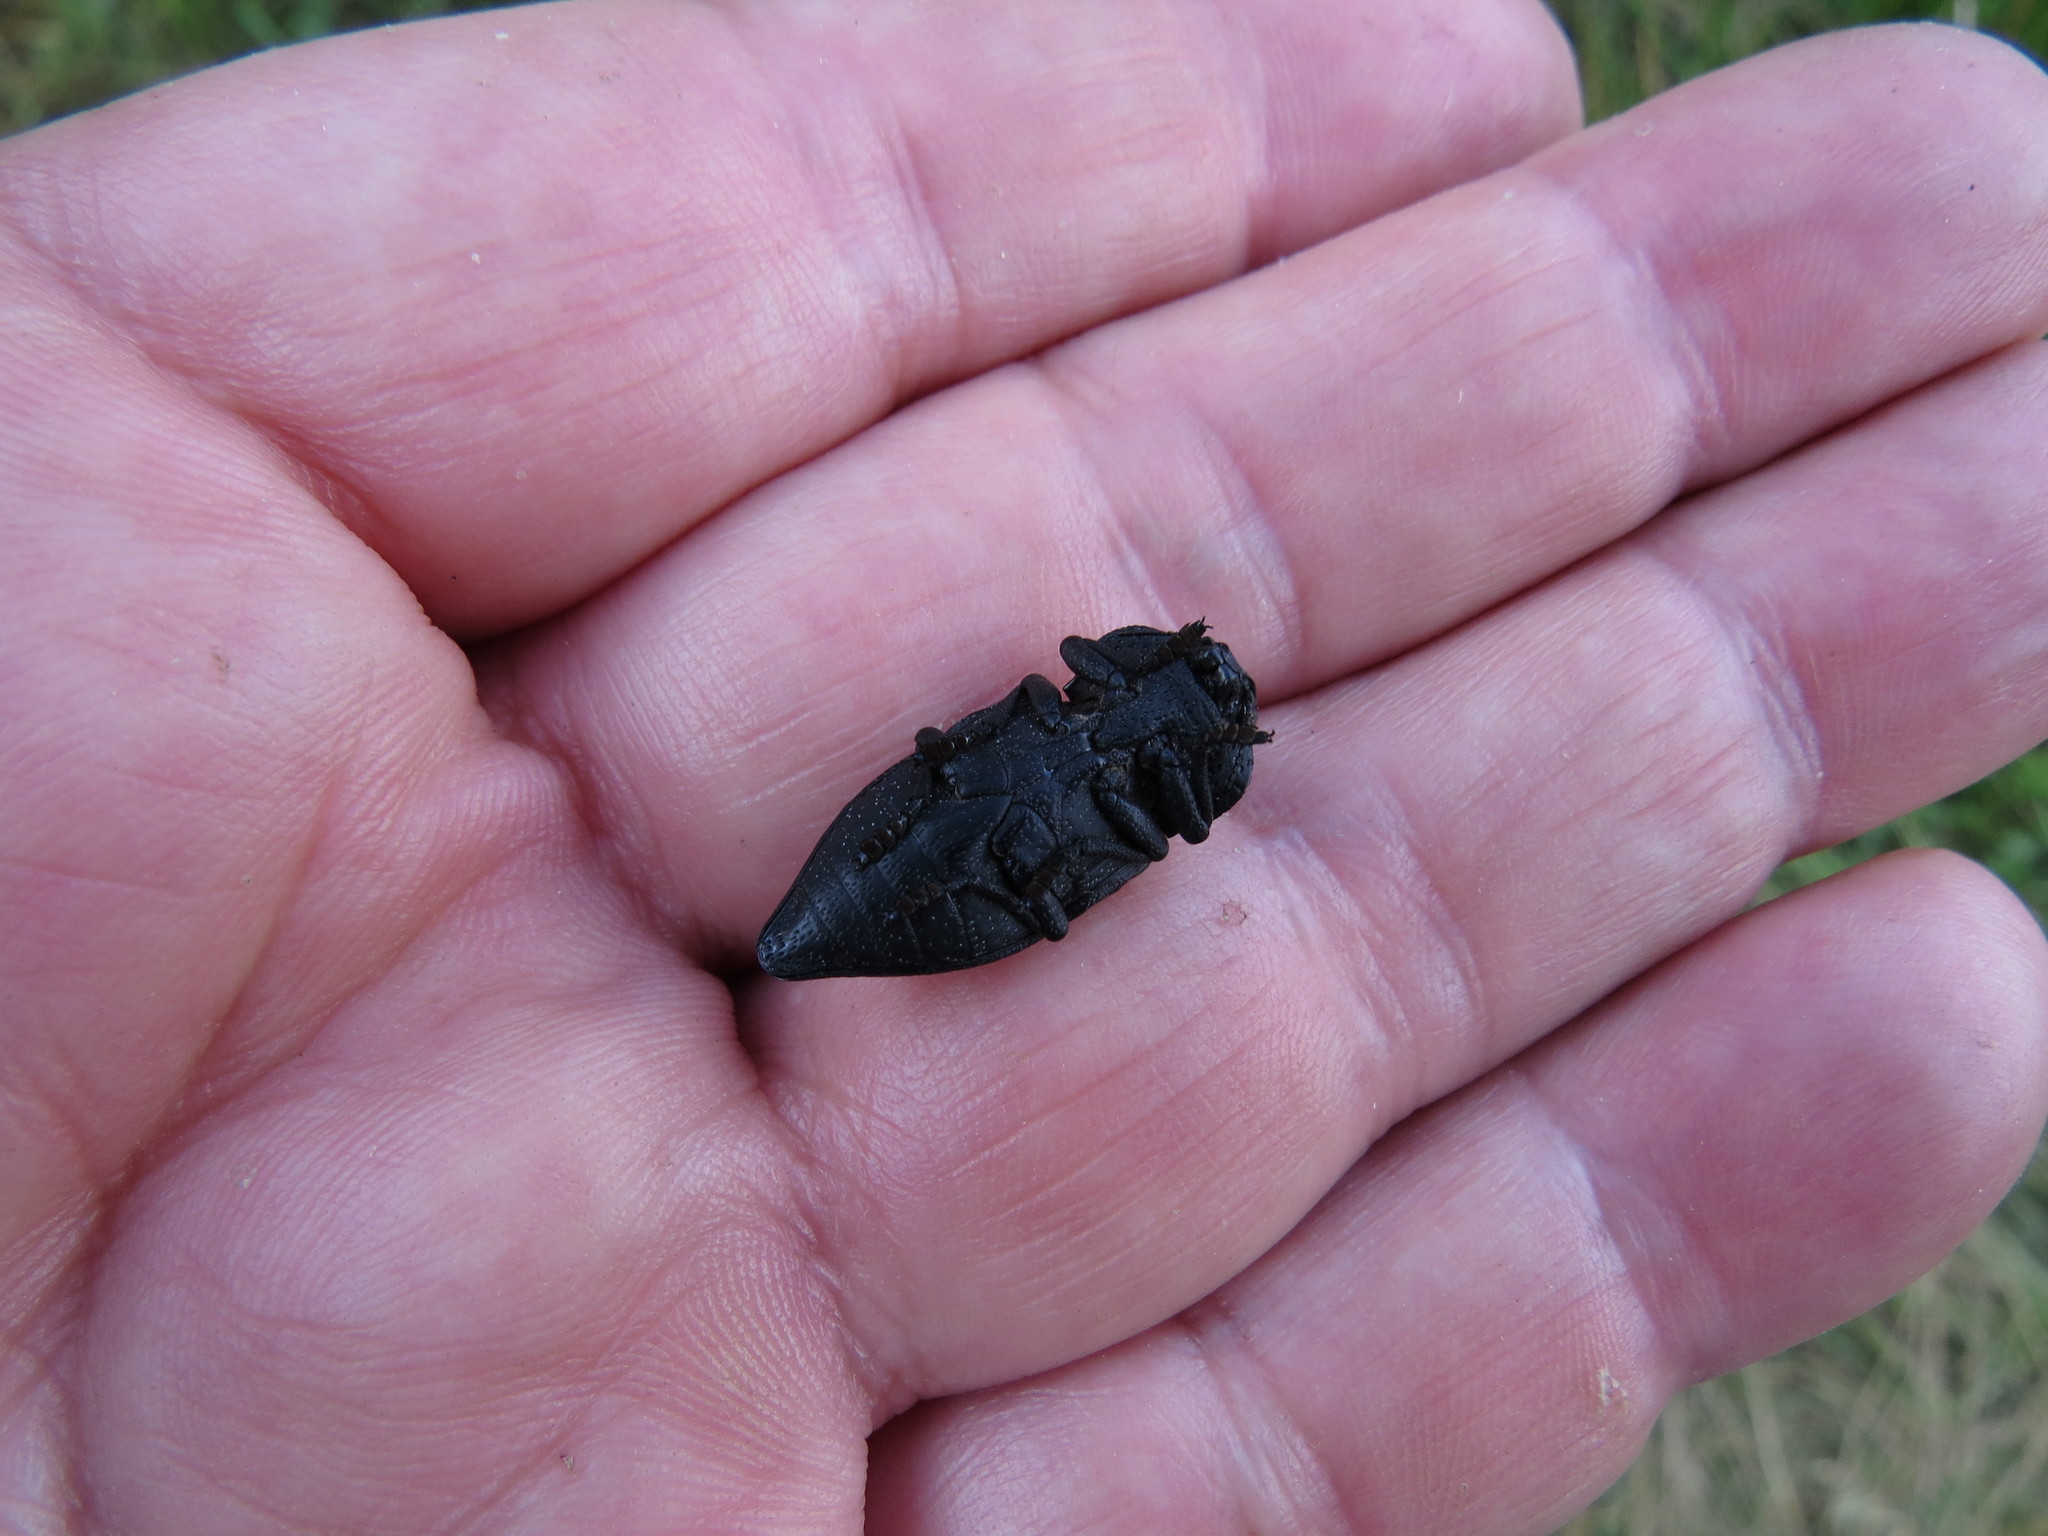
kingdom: Animalia
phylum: Arthropoda
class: Insecta
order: Coleoptera
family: Buprestidae
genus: Capnodis
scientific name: Capnodis tenebrionis
